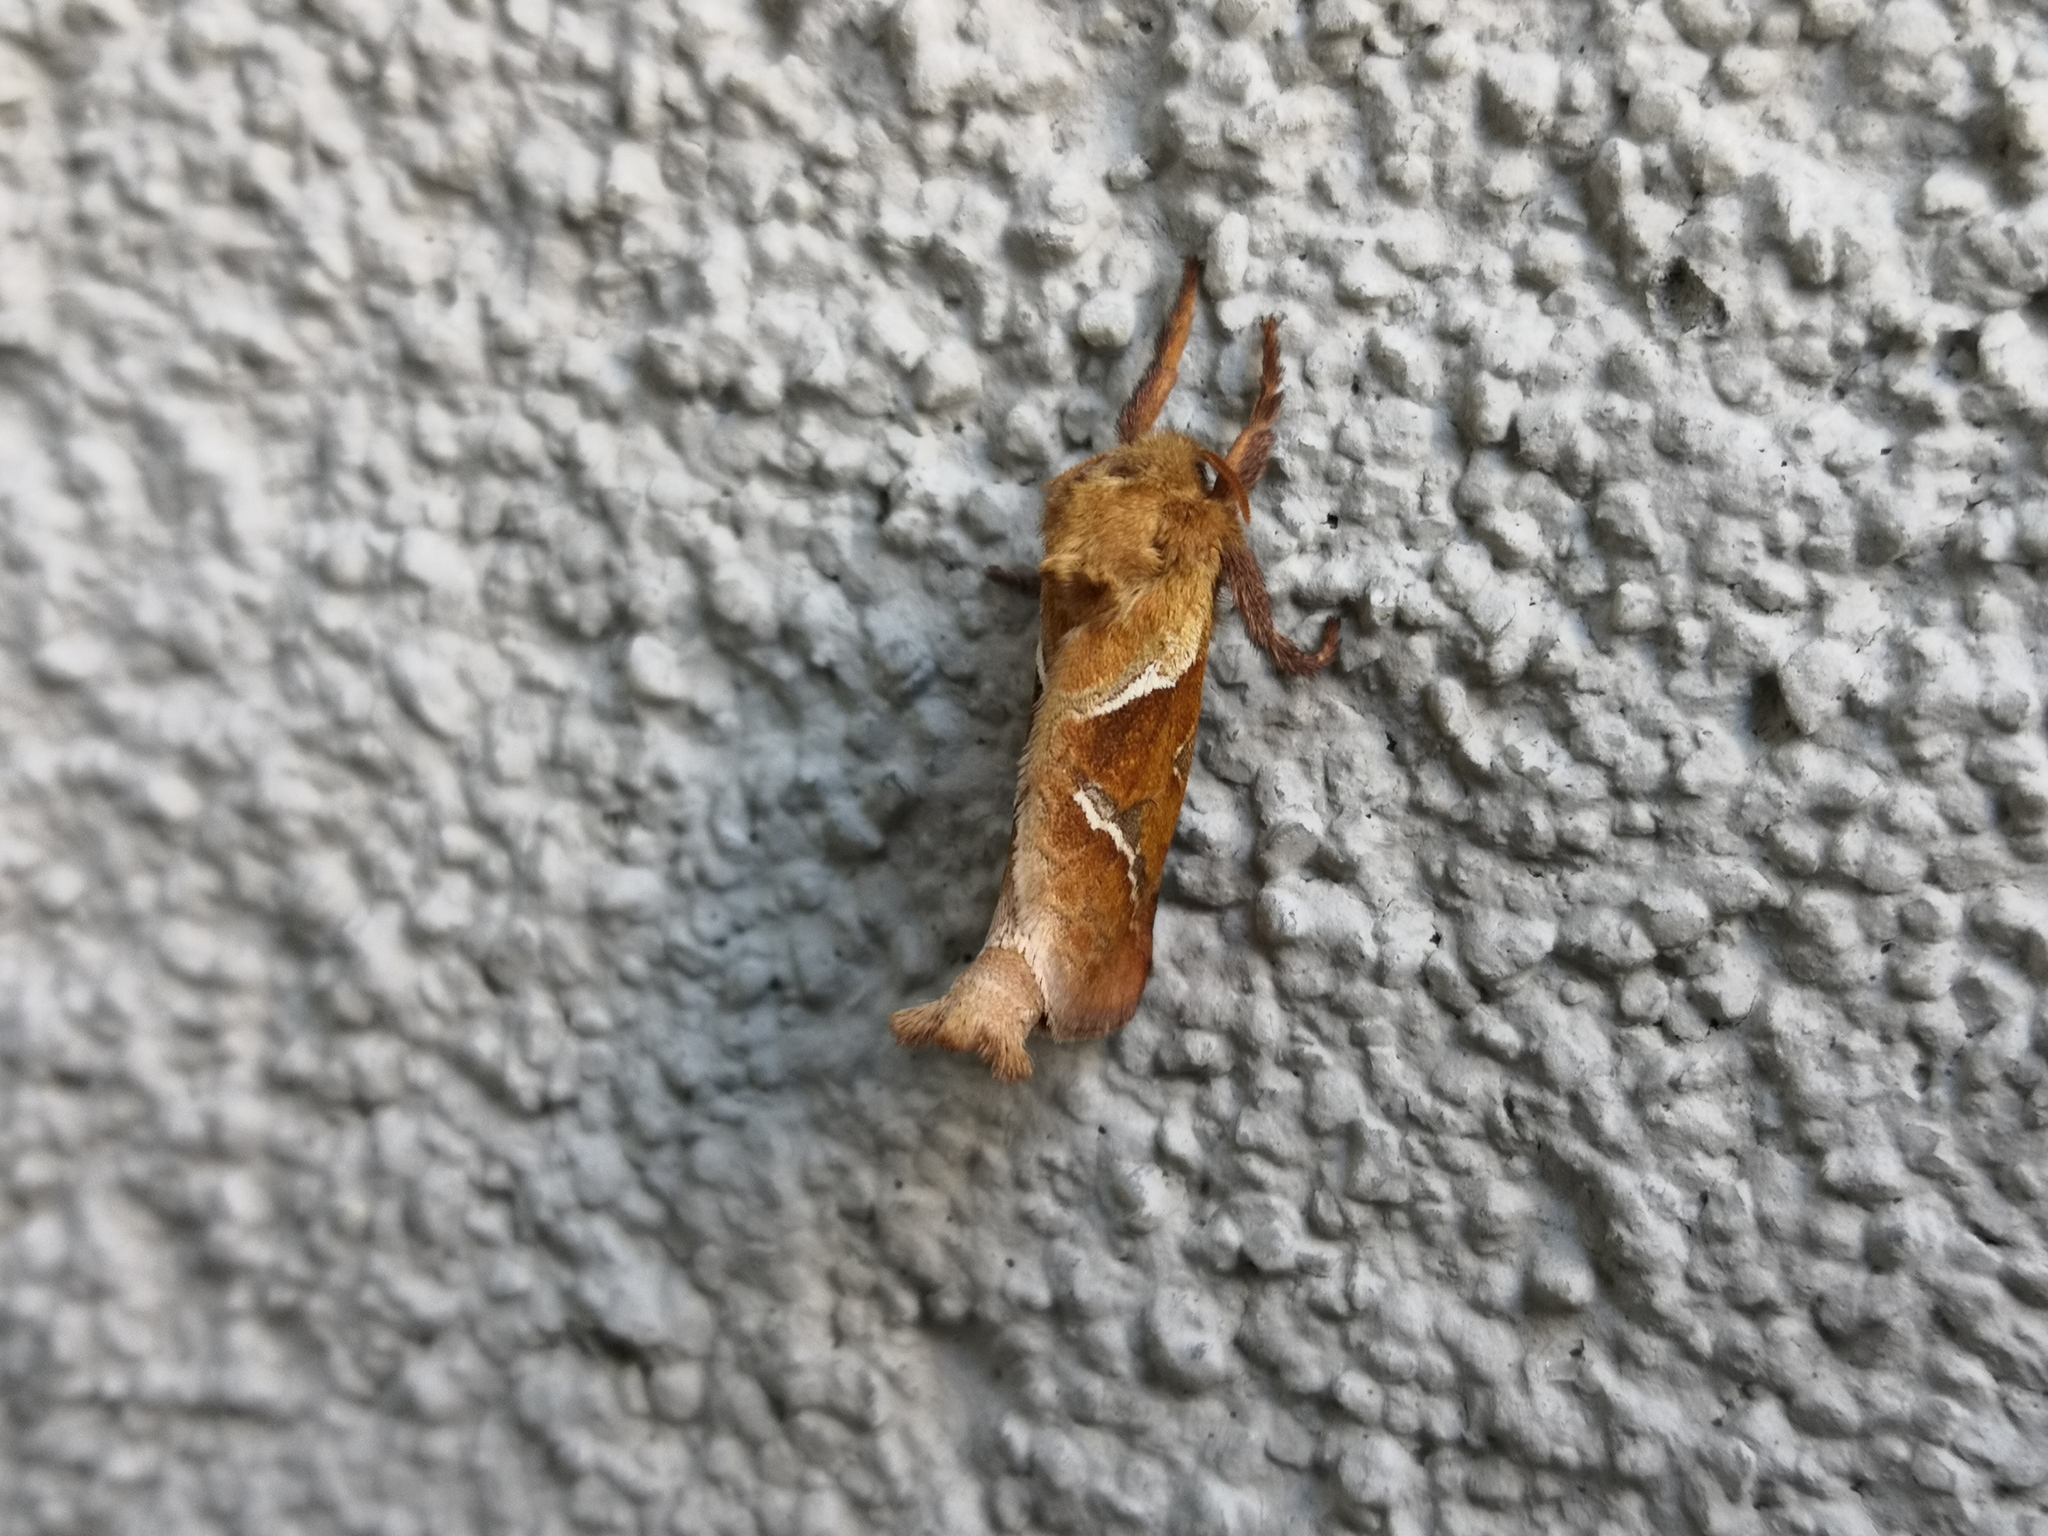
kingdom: Animalia
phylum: Arthropoda
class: Insecta
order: Lepidoptera
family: Hepialidae
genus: Triodia
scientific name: Triodia sylvina
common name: Orange swift
